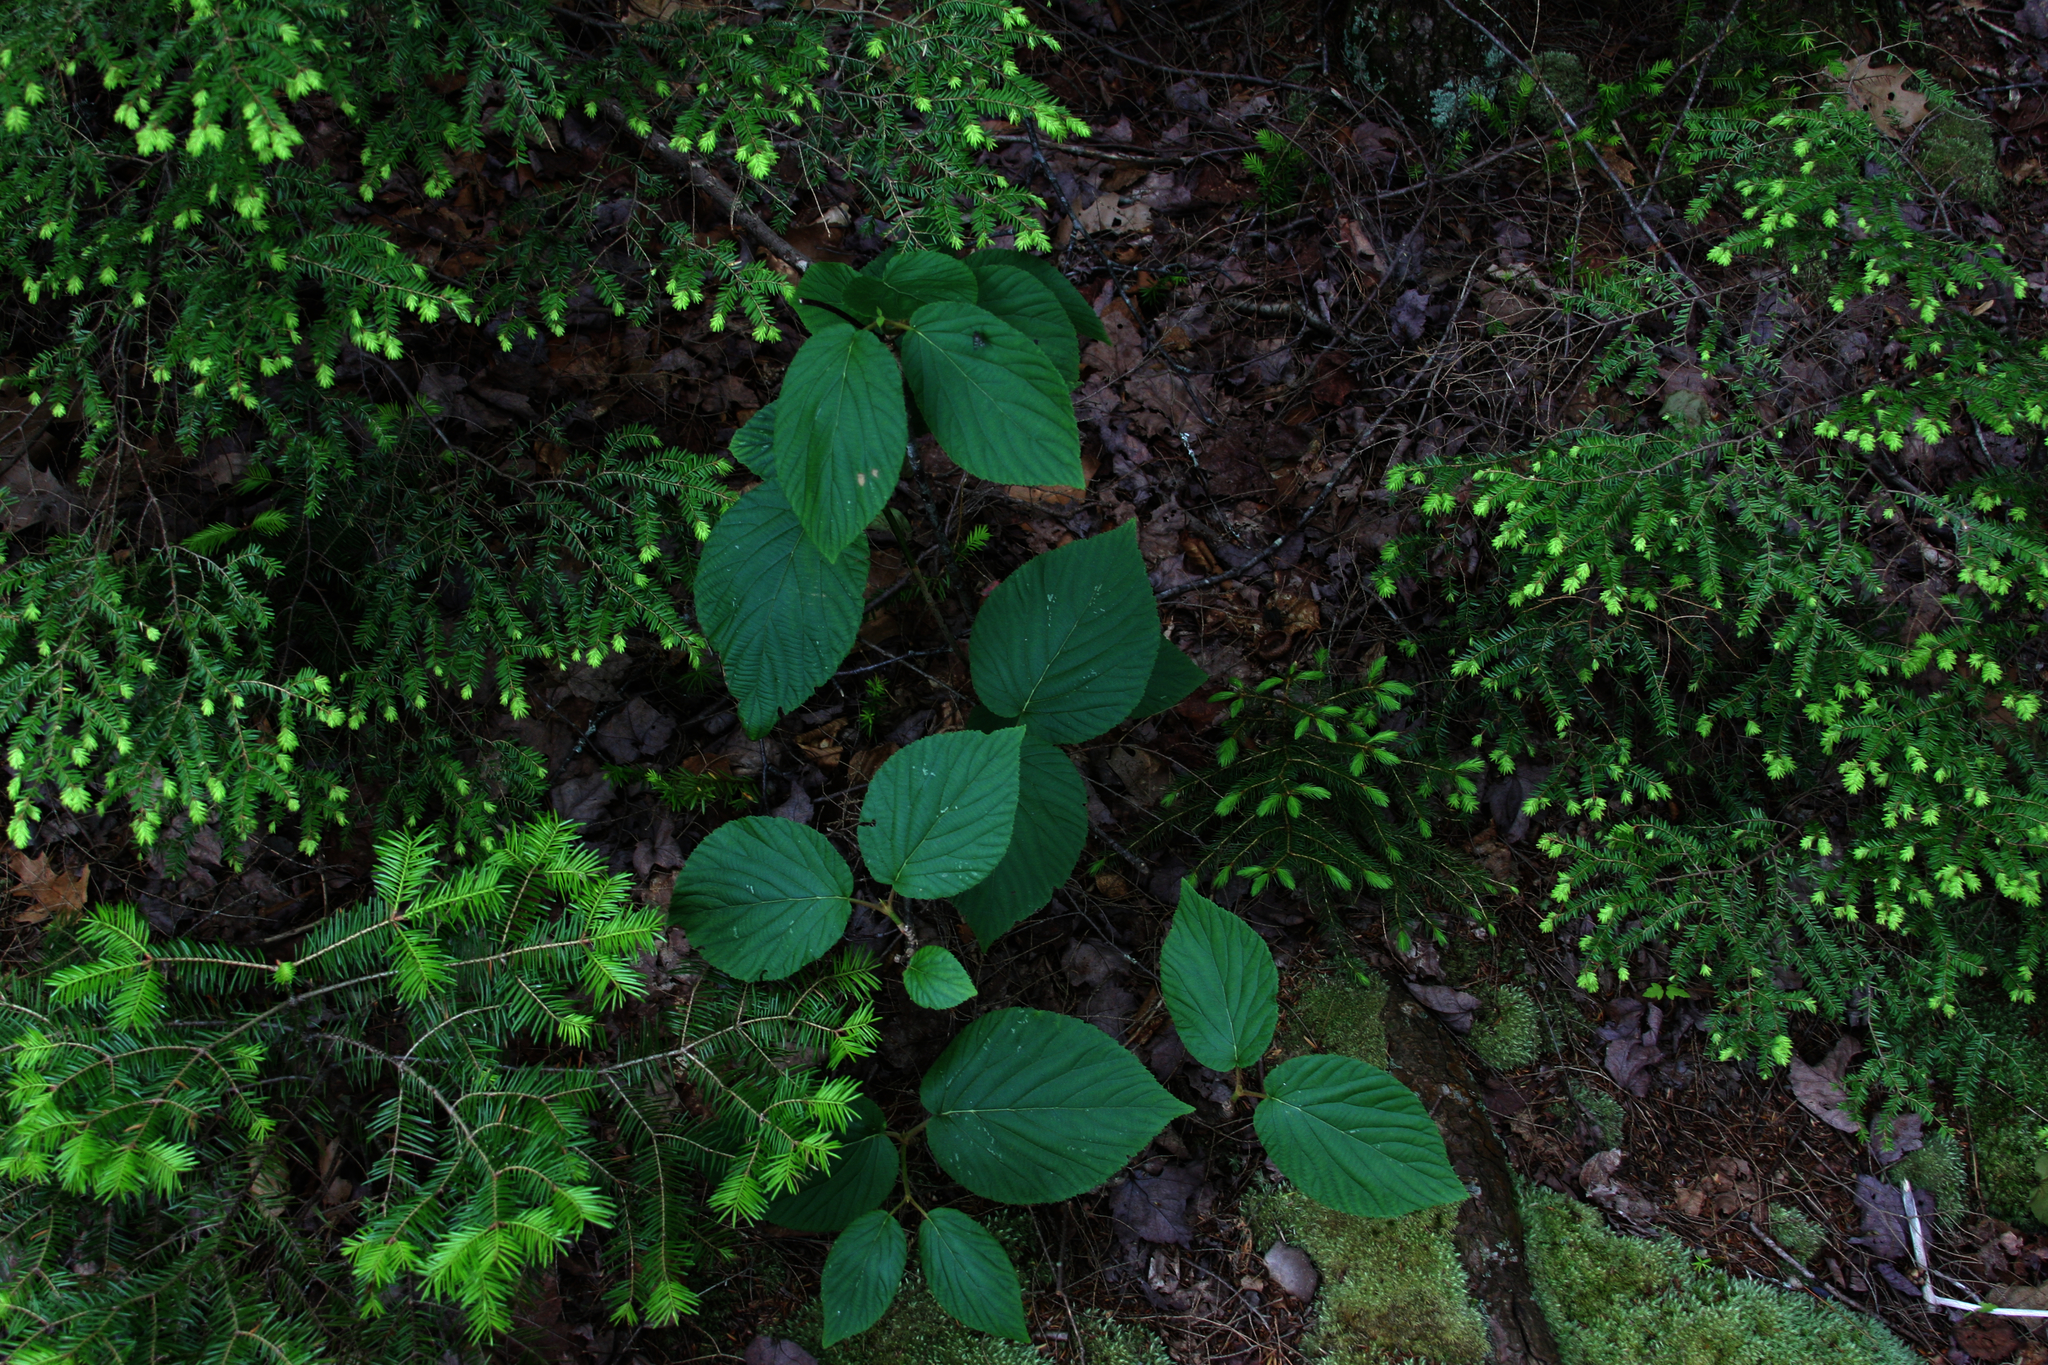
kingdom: Plantae
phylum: Tracheophyta
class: Pinopsida
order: Pinales
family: Pinaceae
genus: Abies
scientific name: Abies balsamea
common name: Balsam fir
